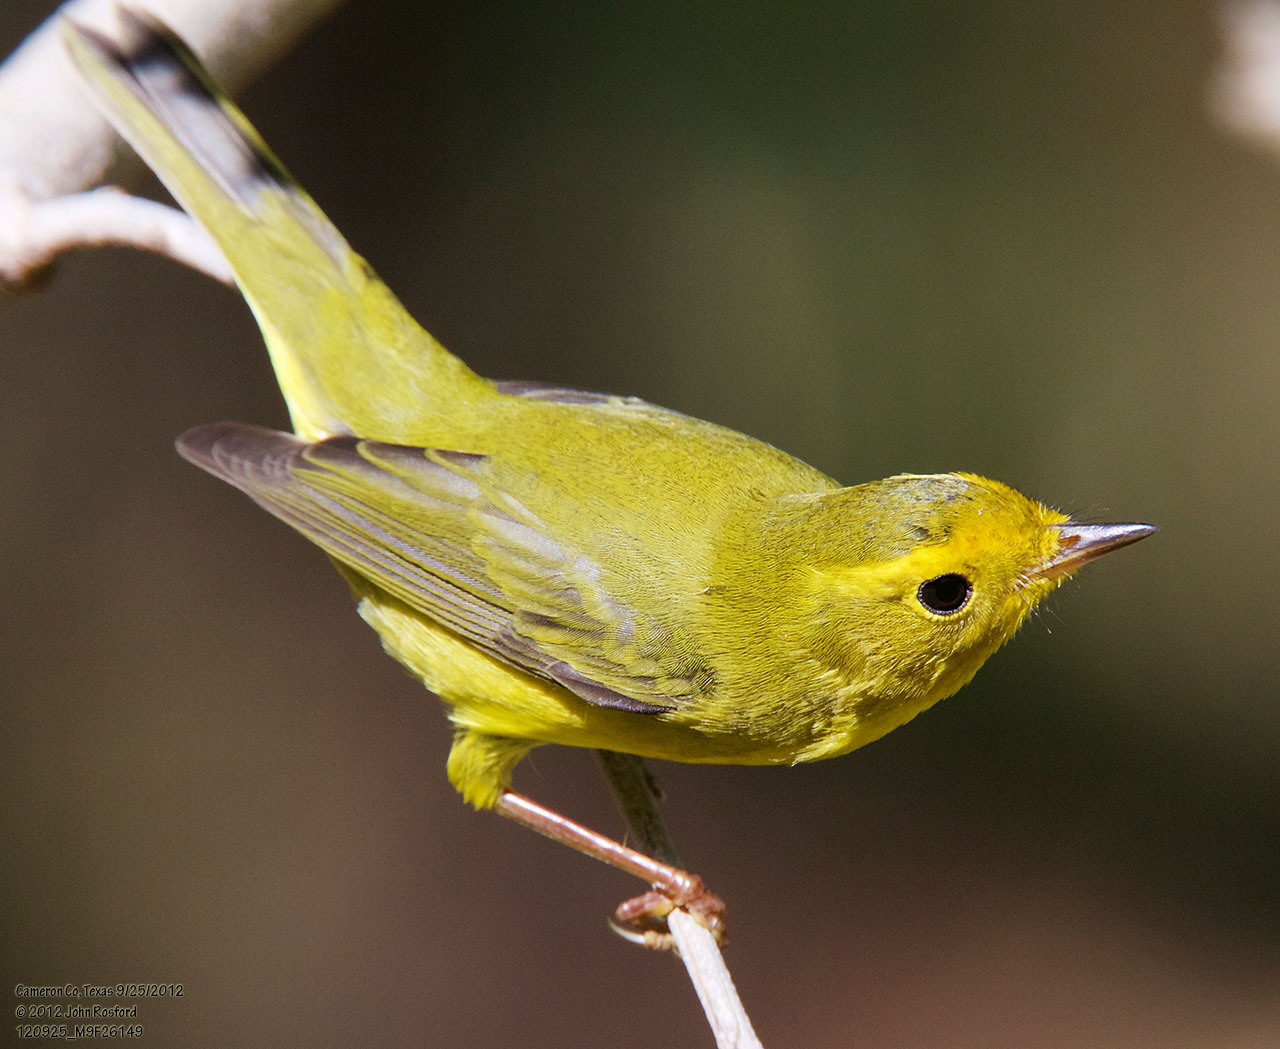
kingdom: Animalia
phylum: Chordata
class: Aves
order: Passeriformes
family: Parulidae
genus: Cardellina
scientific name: Cardellina pusilla
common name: Wilson's warbler
